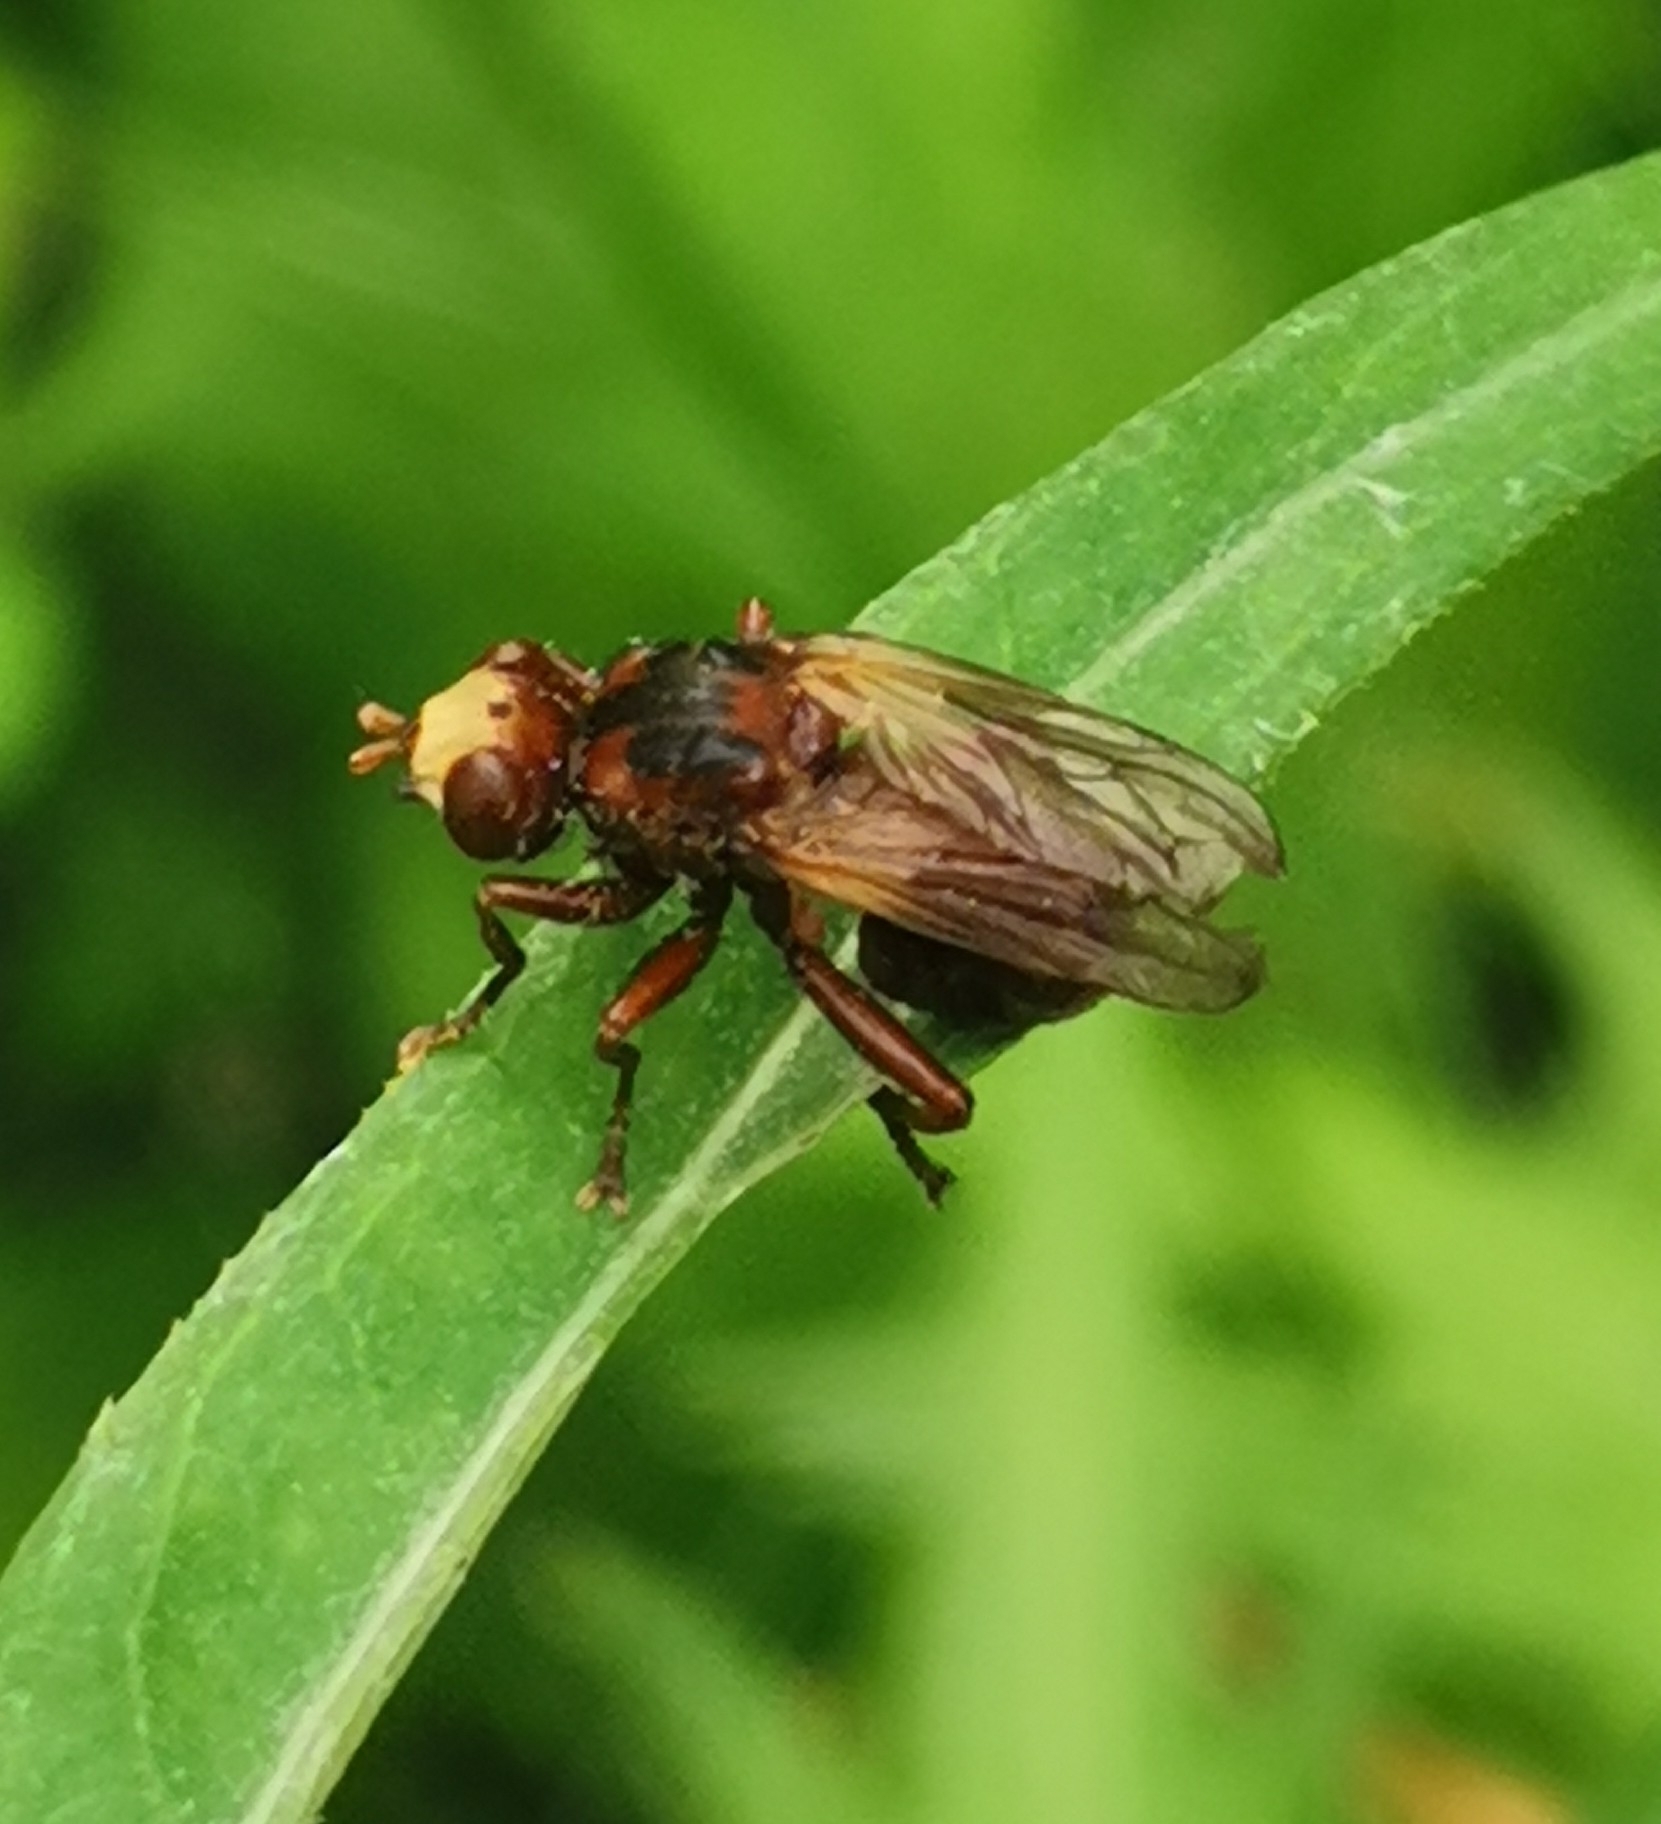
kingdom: Animalia
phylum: Arthropoda
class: Insecta
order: Diptera
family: Conopidae
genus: Sicus
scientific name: Sicus ferrugineus
